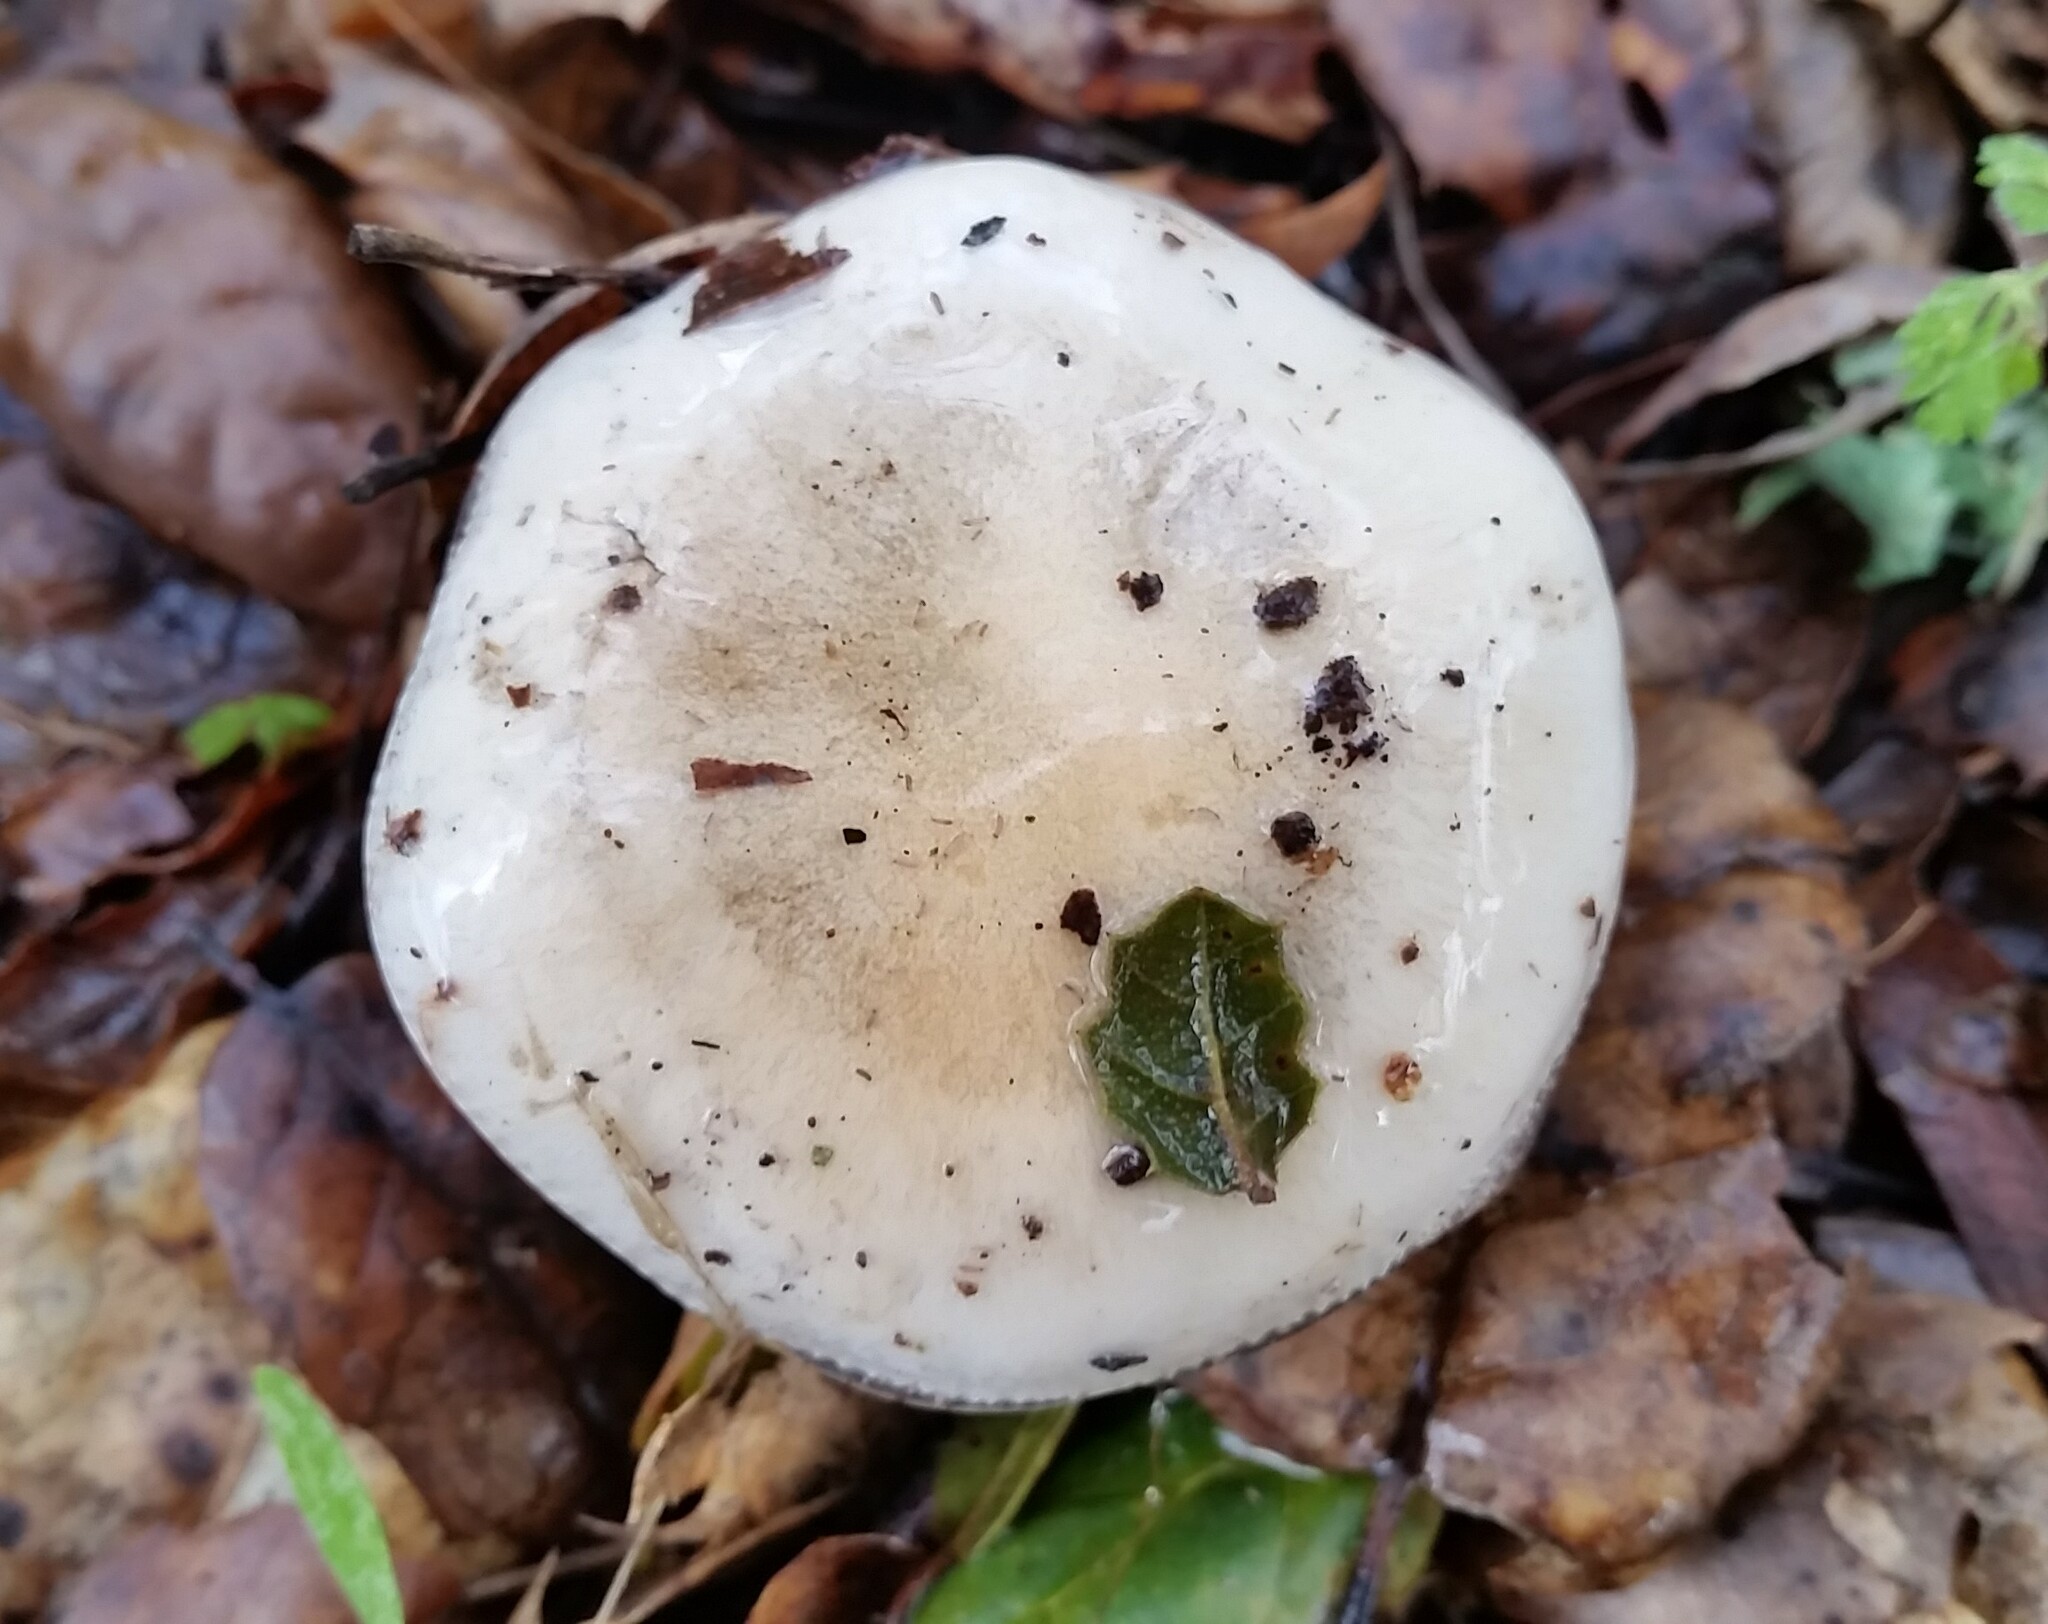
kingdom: Fungi
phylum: Basidiomycota
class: Agaricomycetes
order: Agaricales
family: Hygrophoraceae
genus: Hygrophorus
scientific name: Hygrophorus eburneus
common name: Ivory wax-cap
